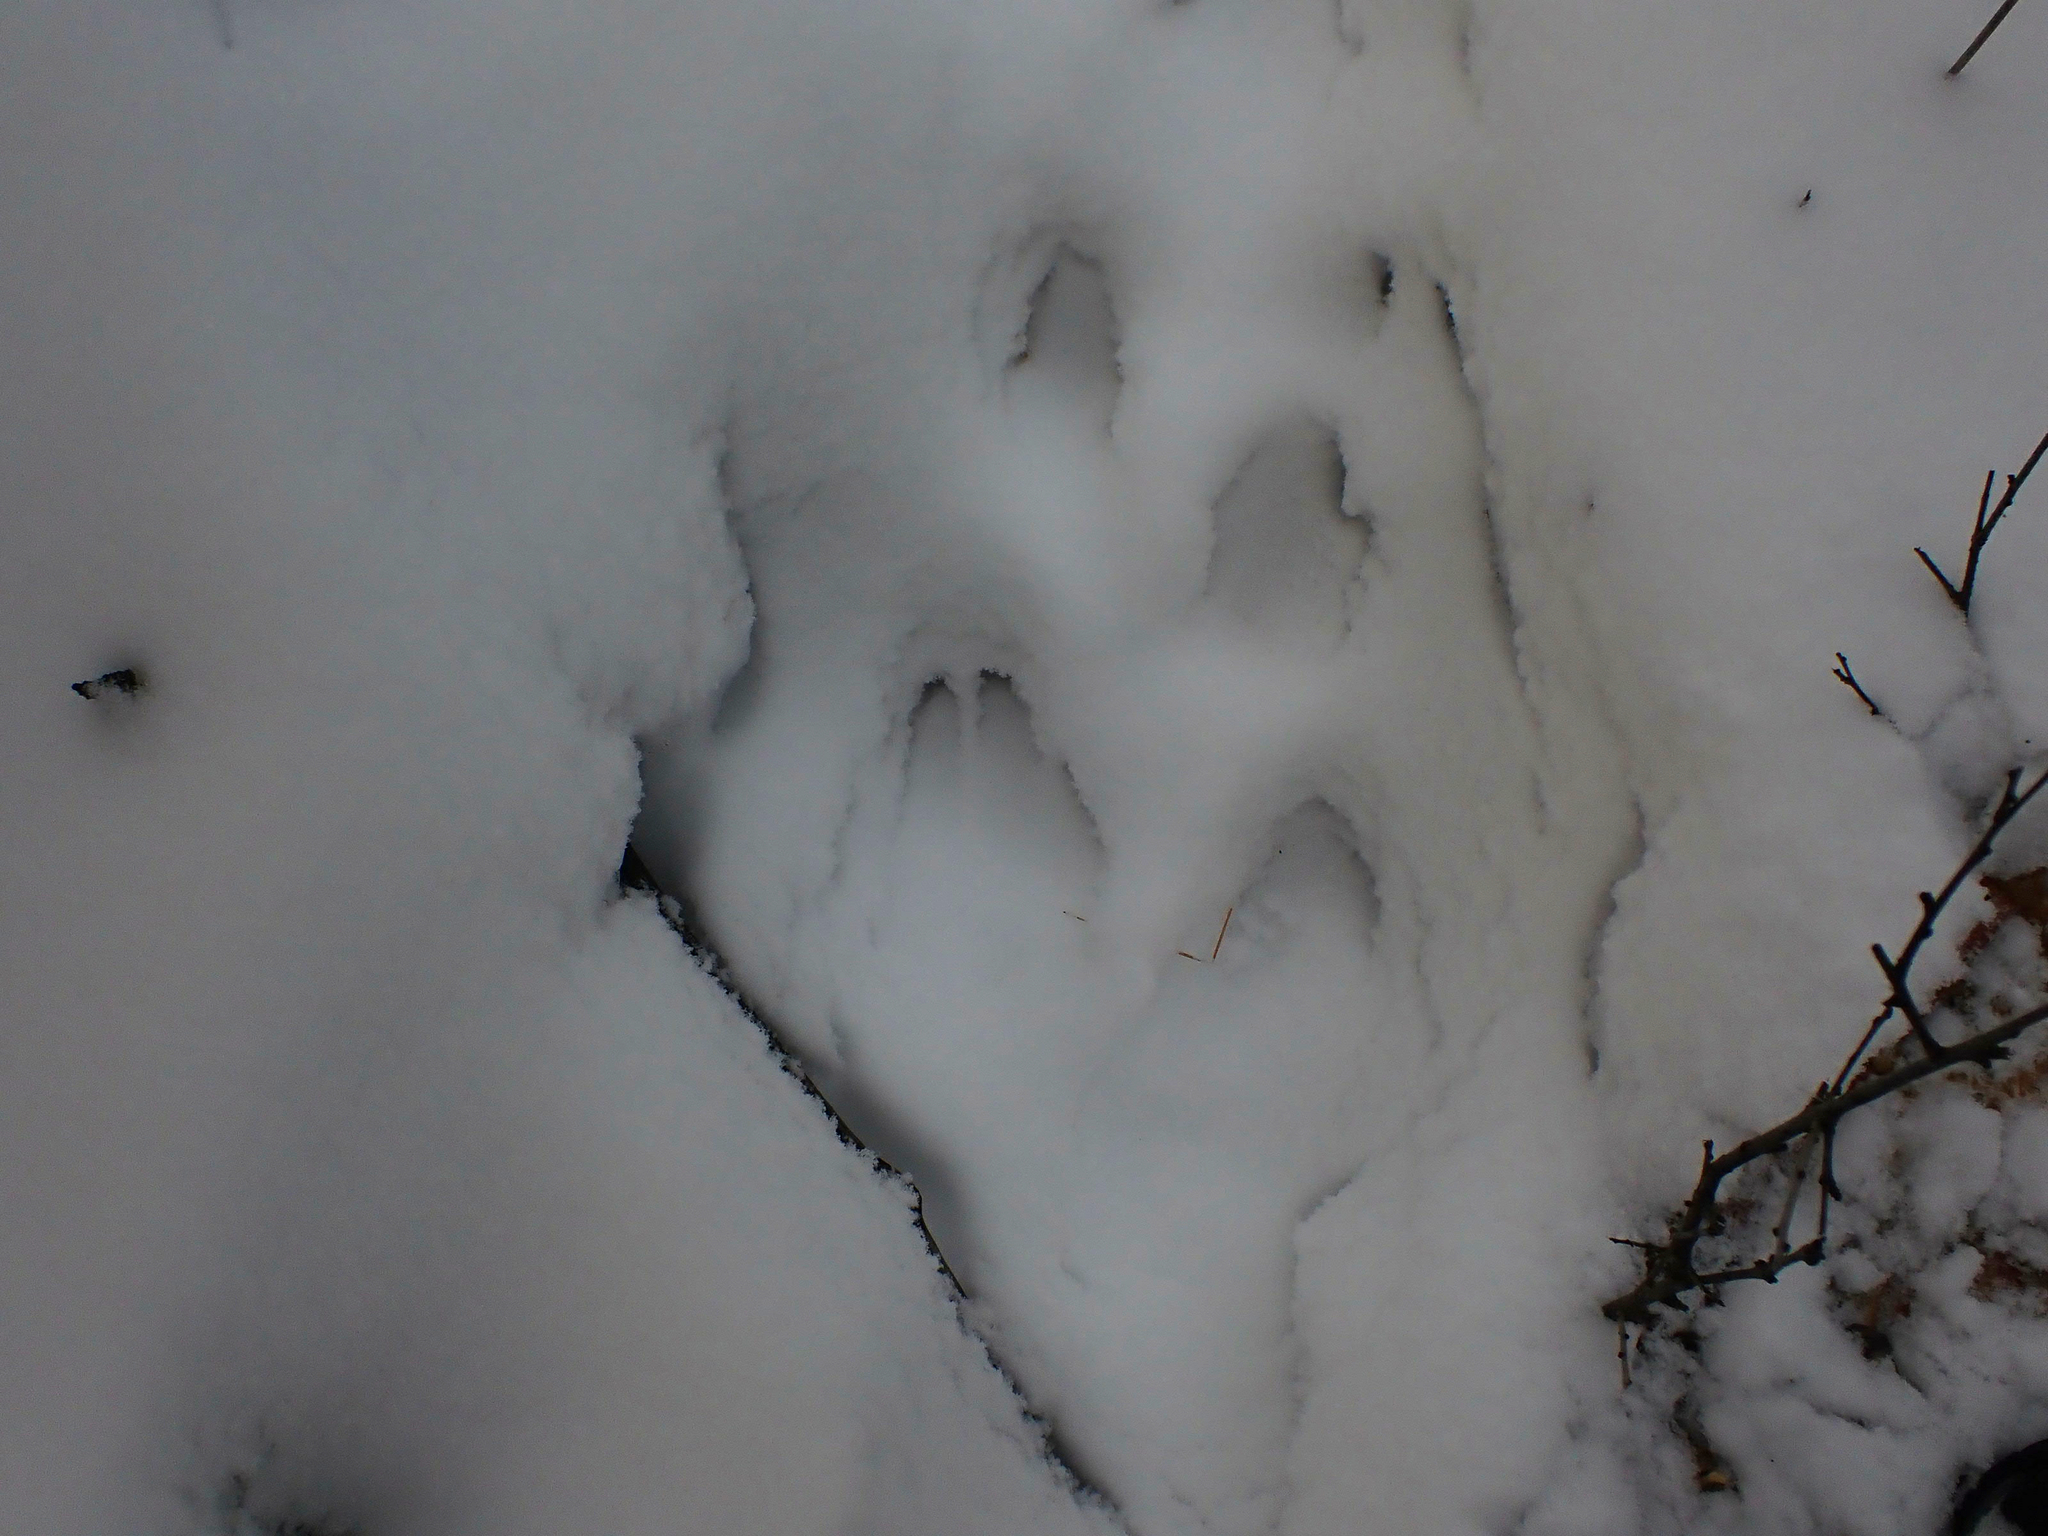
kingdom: Animalia
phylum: Chordata
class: Mammalia
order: Artiodactyla
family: Cervidae
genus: Odocoileus
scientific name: Odocoileus virginianus
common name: White-tailed deer
